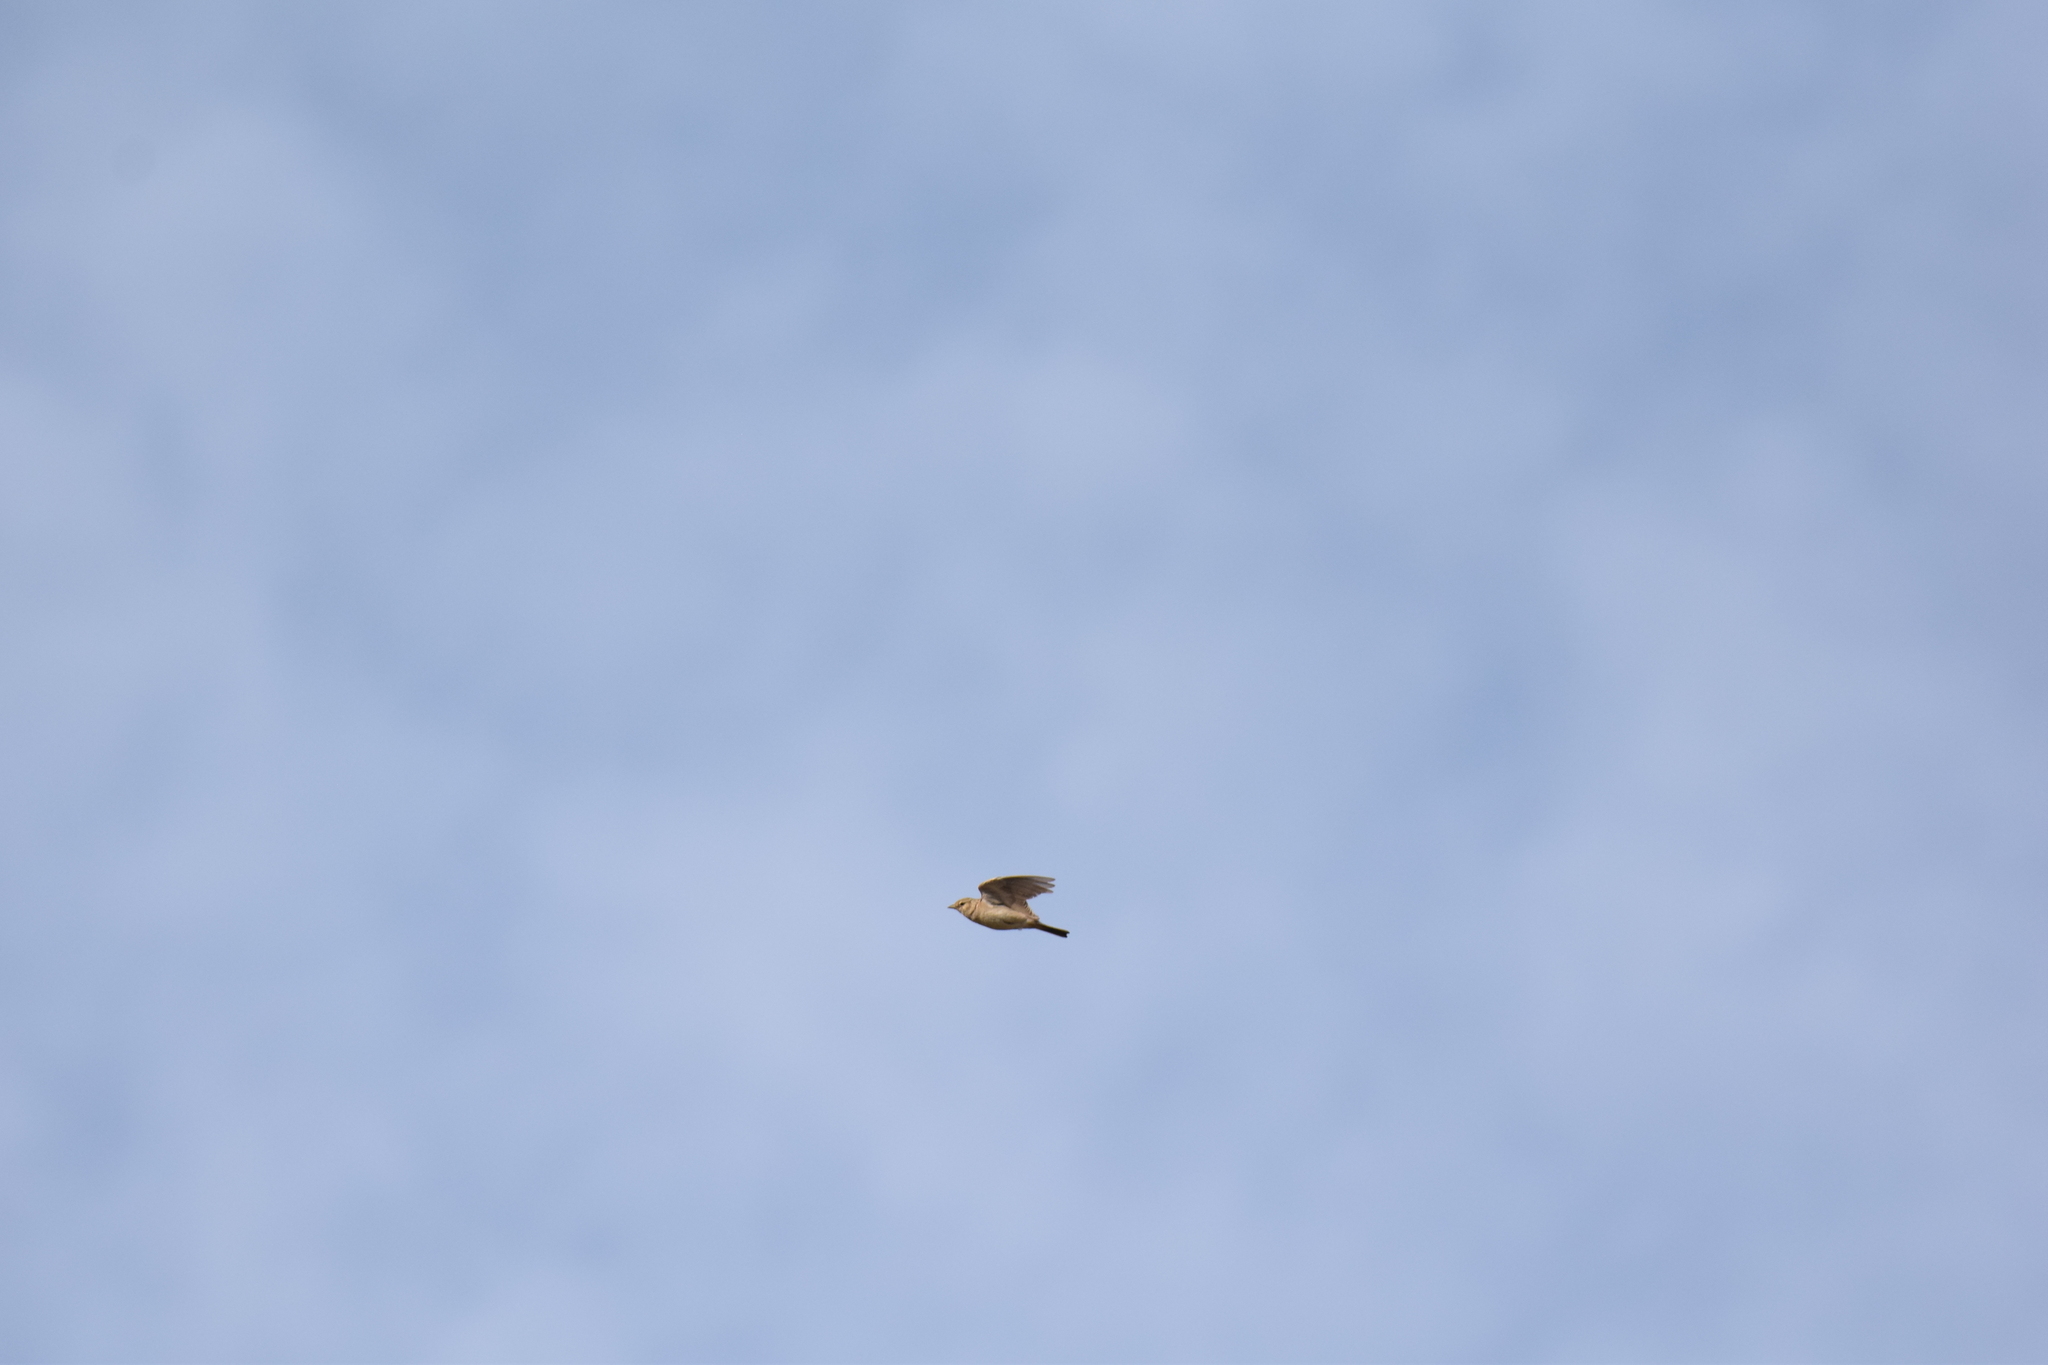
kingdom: Animalia
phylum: Chordata
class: Aves
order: Passeriformes
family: Alaudidae
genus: Calandrella
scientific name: Calandrella brachydactyla
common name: Greater short-toed lark
